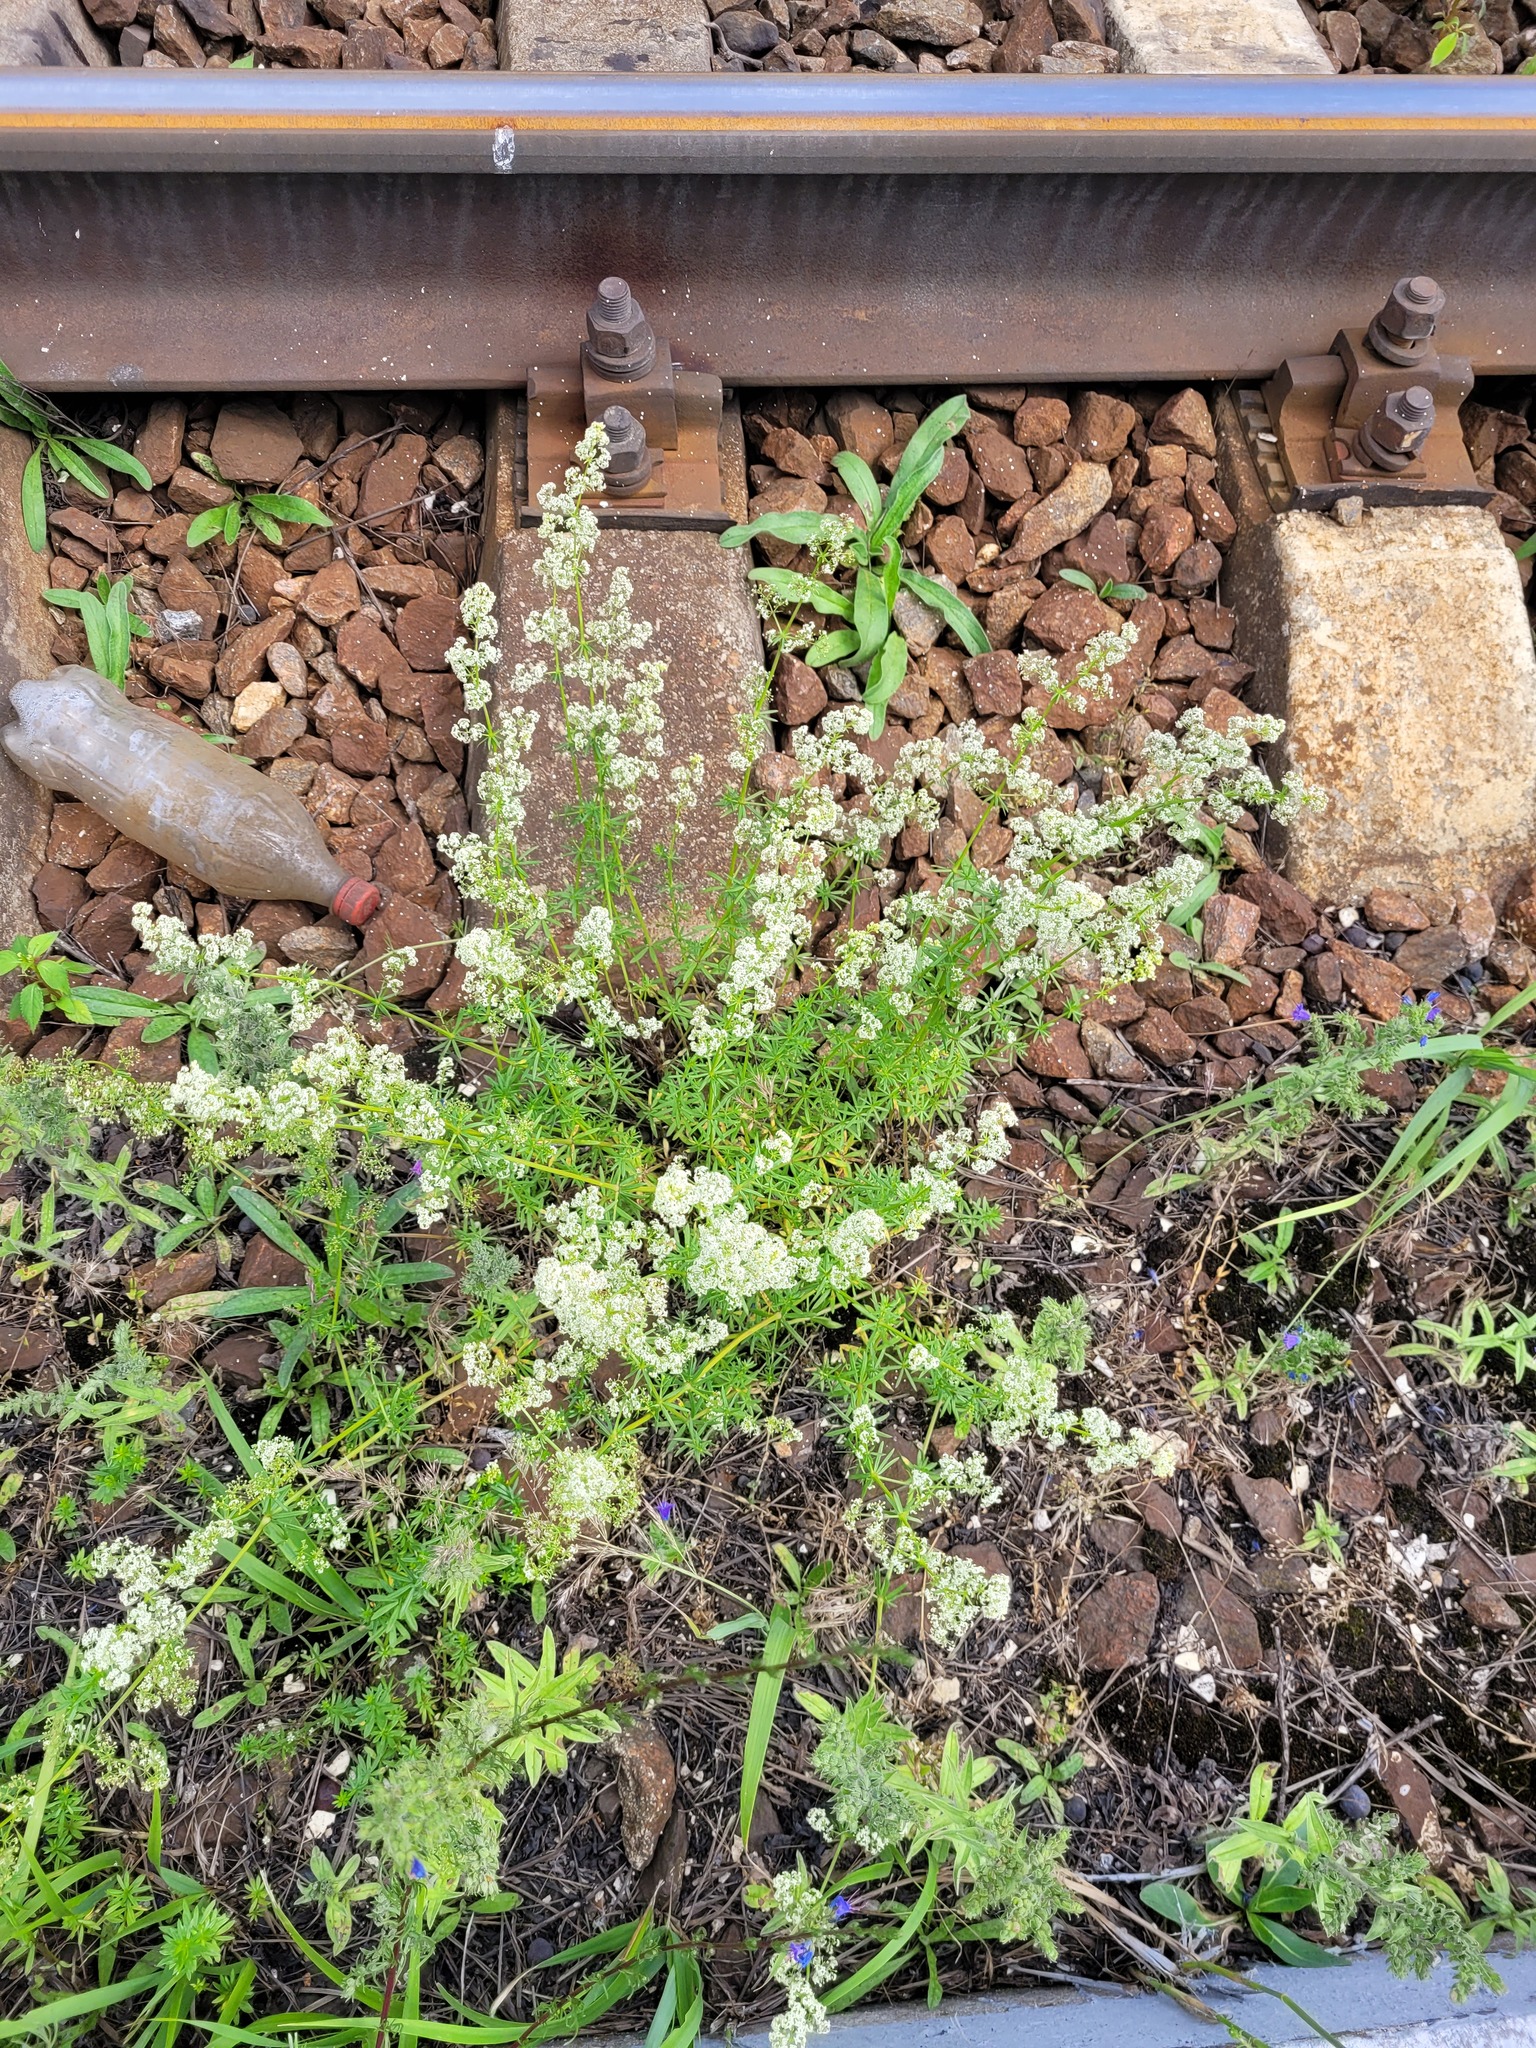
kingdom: Plantae
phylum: Tracheophyta
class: Magnoliopsida
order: Gentianales
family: Rubiaceae
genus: Galium
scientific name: Galium mollugo
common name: Hedge bedstraw
